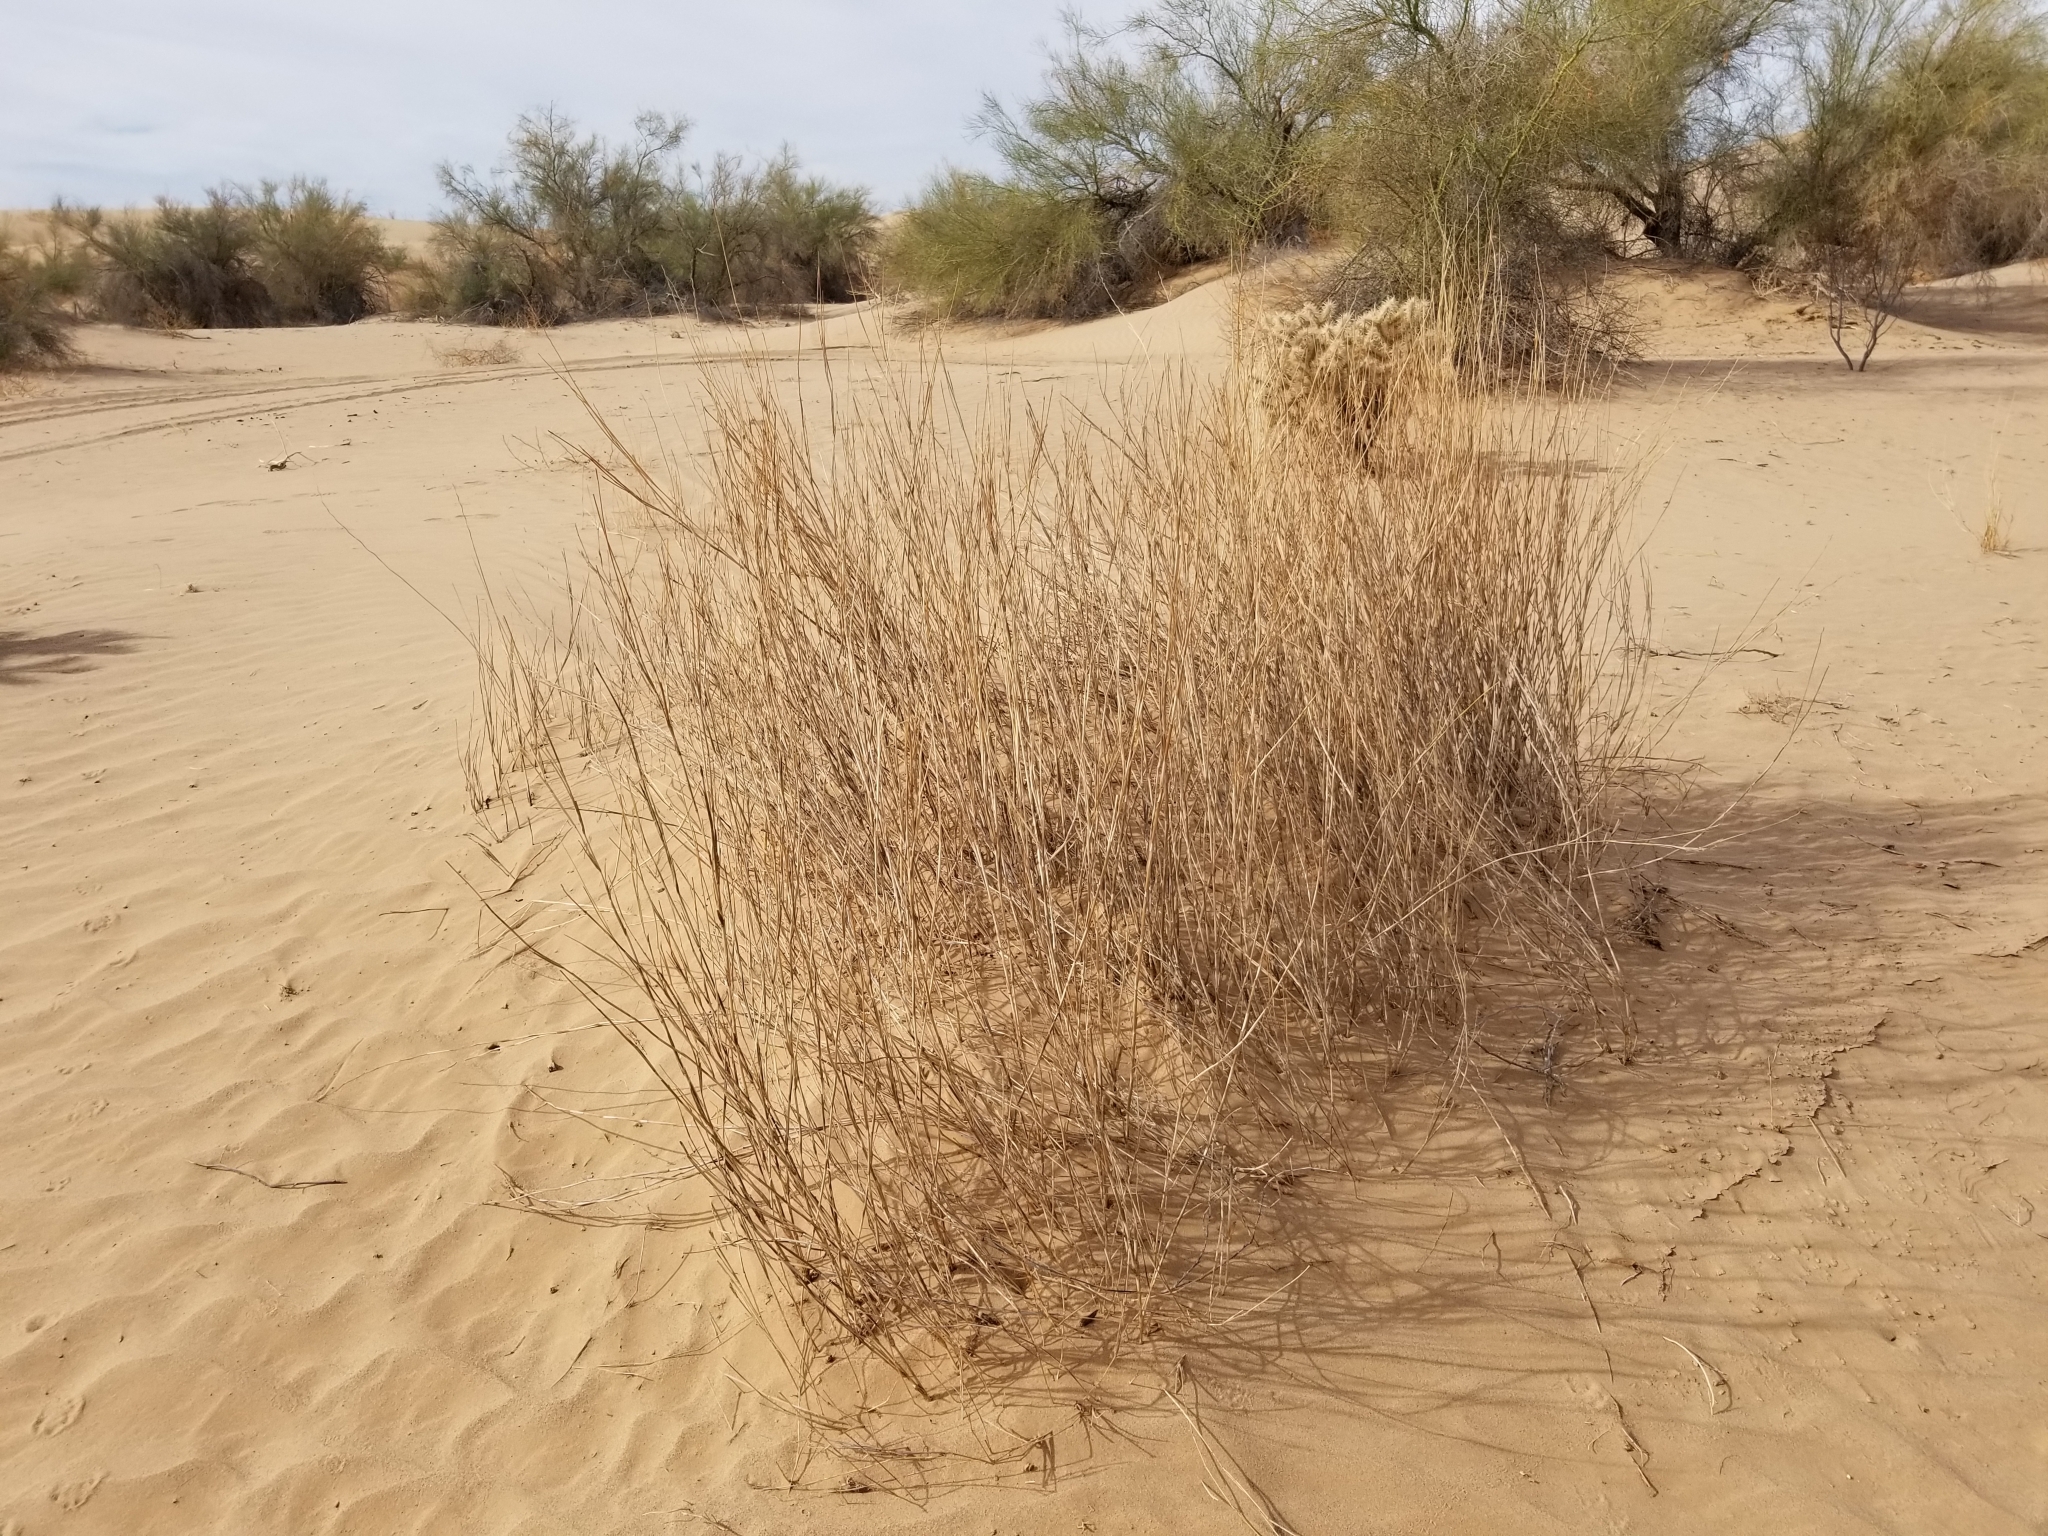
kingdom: Plantae
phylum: Tracheophyta
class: Liliopsida
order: Poales
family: Poaceae
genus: Hilaria
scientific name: Hilaria rigida
